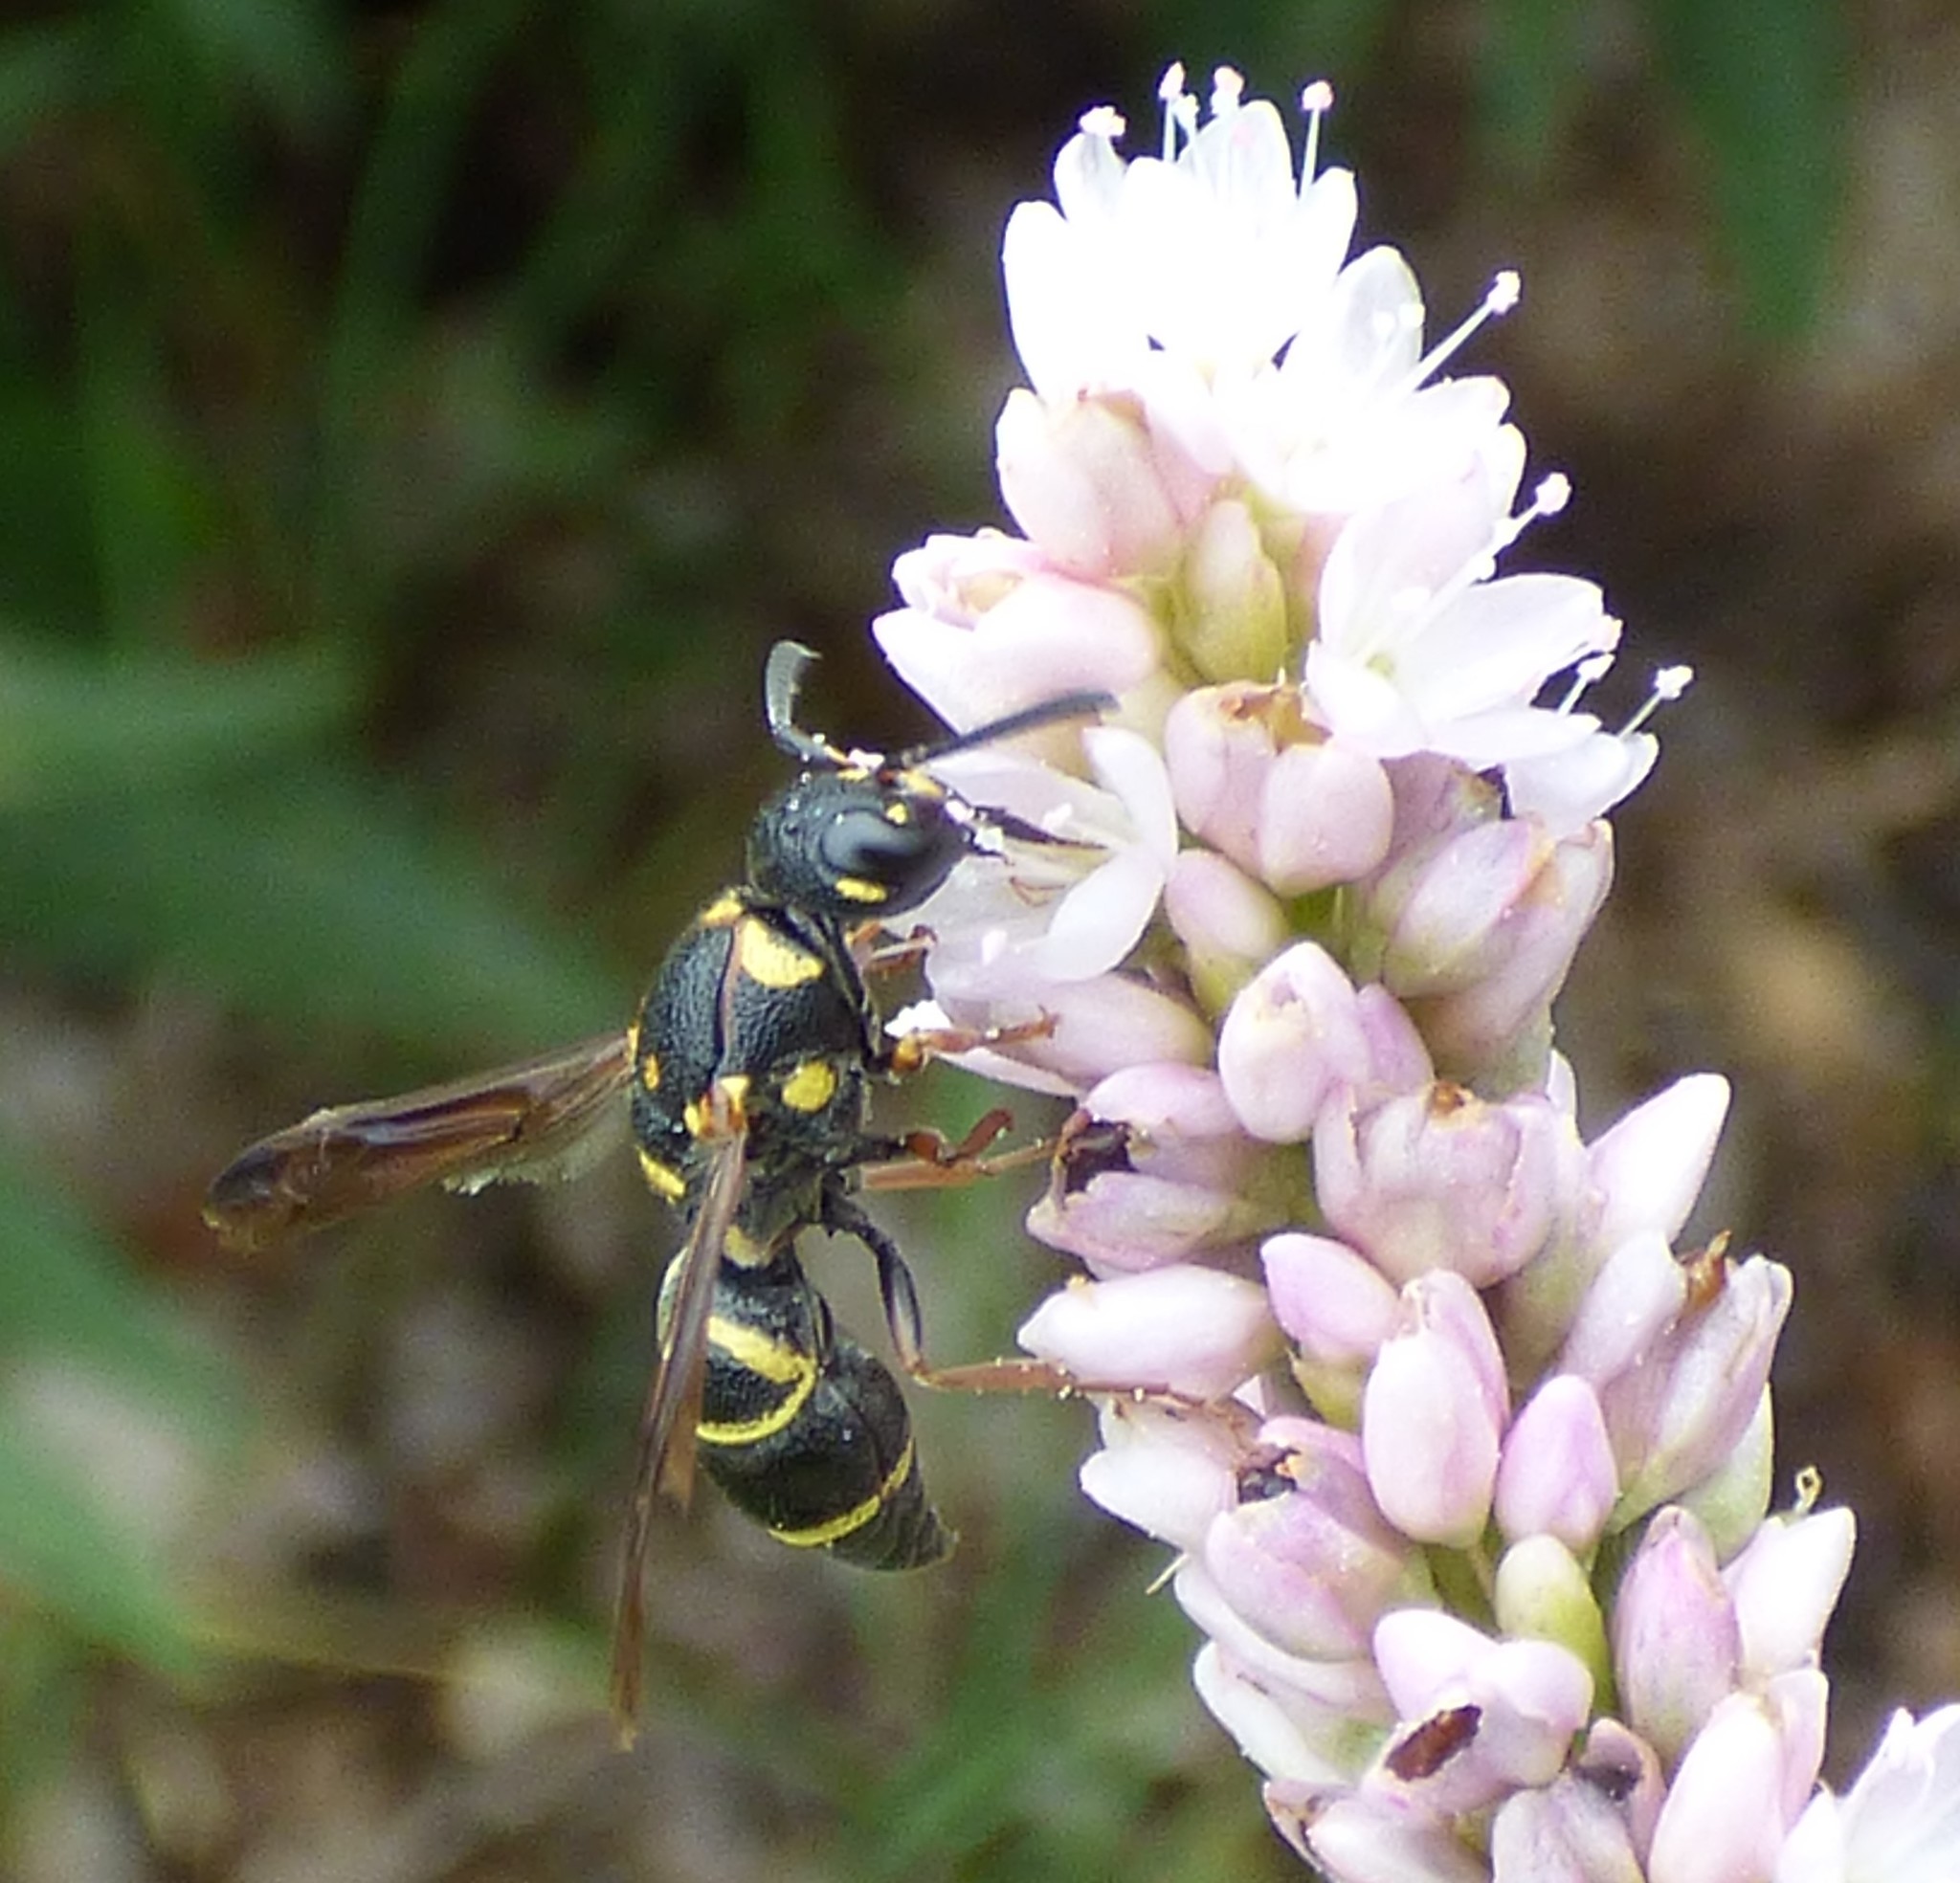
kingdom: Animalia
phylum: Arthropoda
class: Insecta
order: Hymenoptera
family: Eumenidae
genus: Parancistrocerus
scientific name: Parancistrocerus fulvipes
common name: Potter wasp
